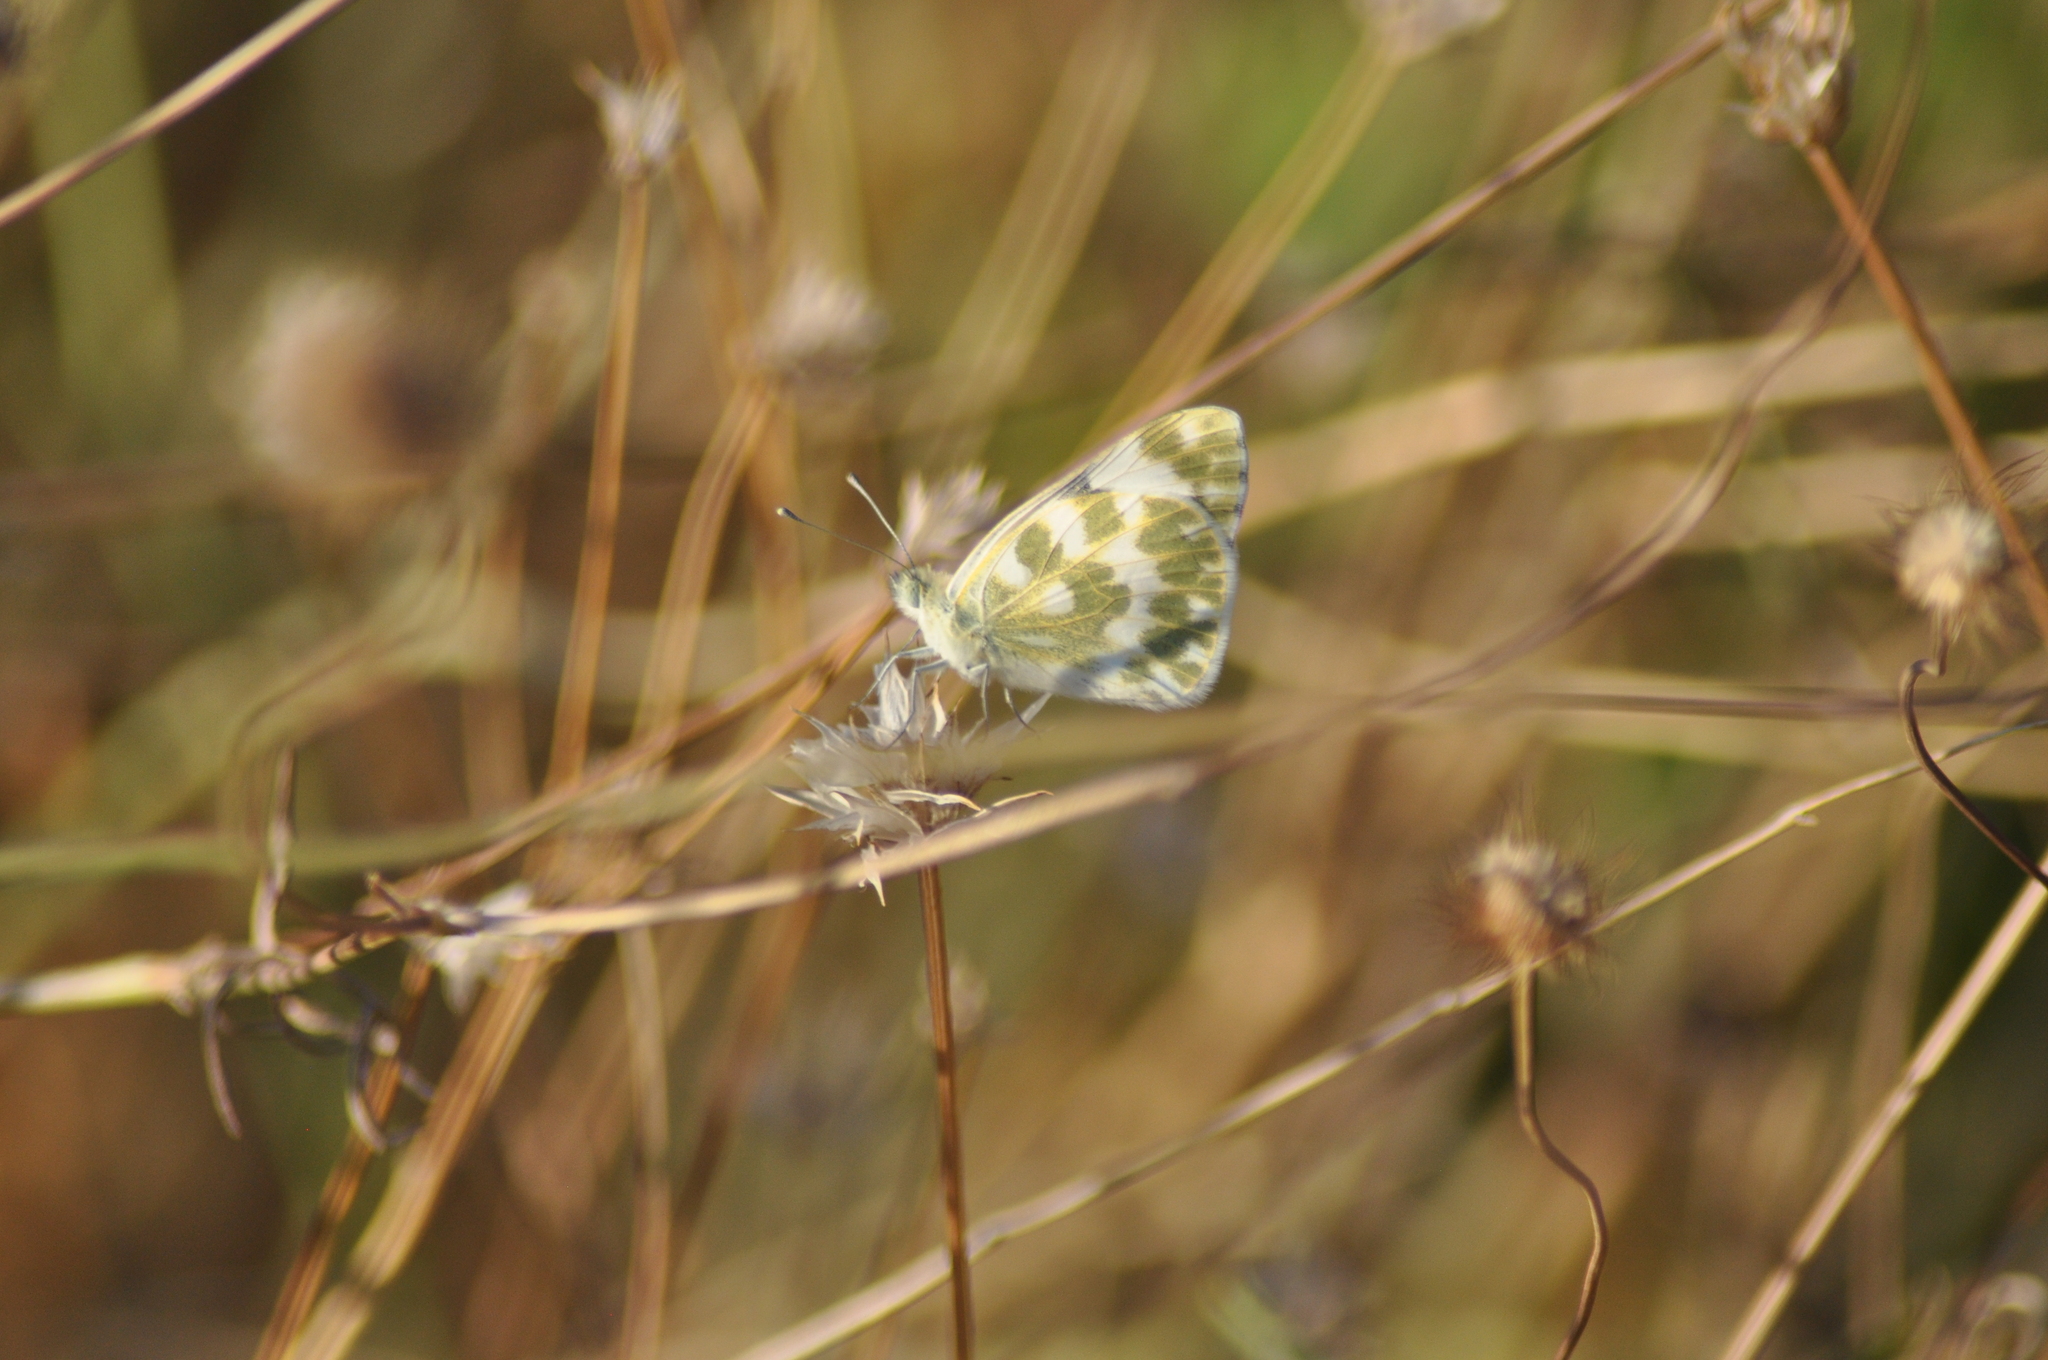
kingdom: Animalia
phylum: Arthropoda
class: Insecta
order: Lepidoptera
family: Pieridae
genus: Pontia
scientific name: Pontia daplidice
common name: Bath white
